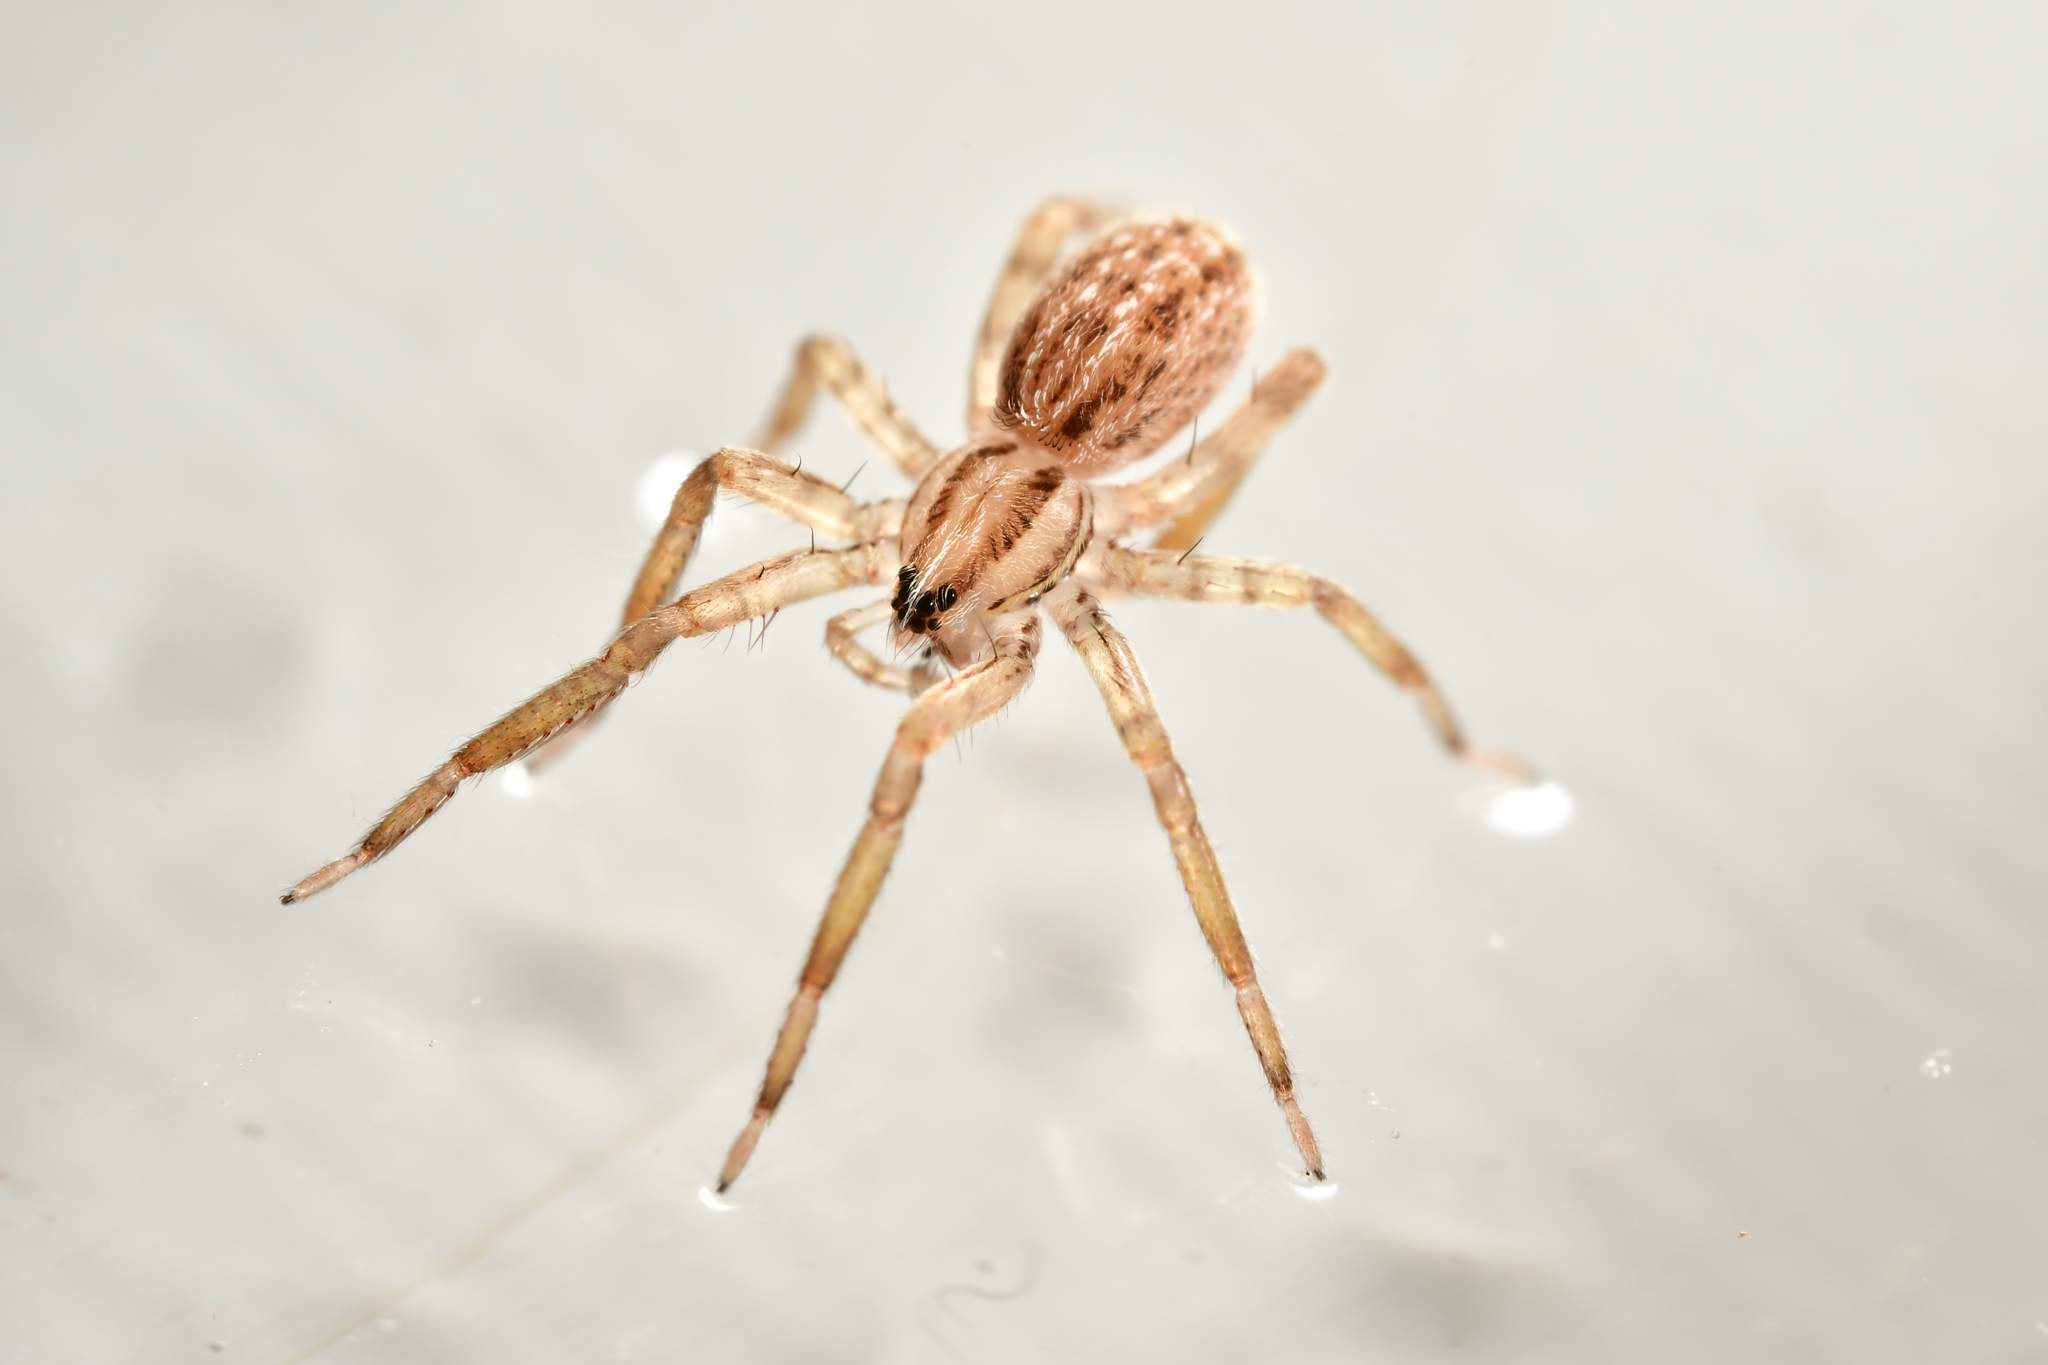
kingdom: Animalia
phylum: Arthropoda
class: Arachnida
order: Araneae
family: Miturgidae
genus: Zora
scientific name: Zora spinimana
